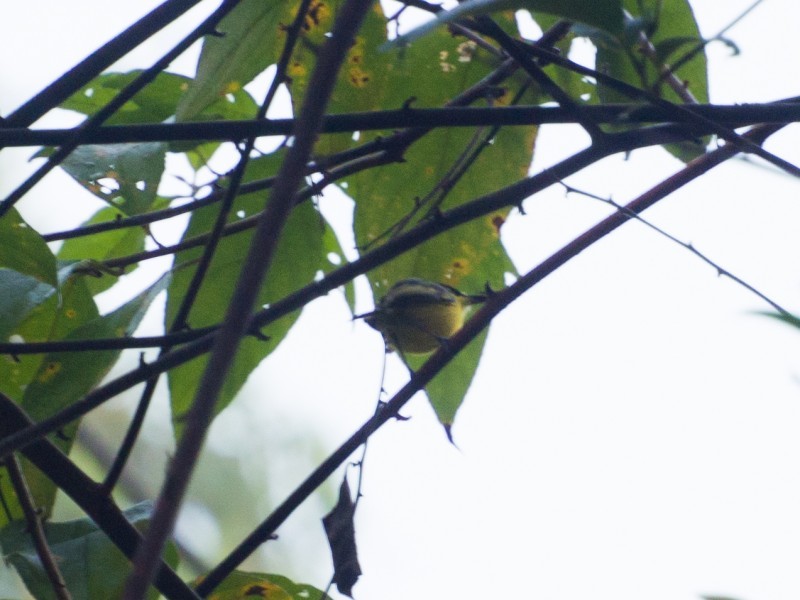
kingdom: Animalia
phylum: Chordata
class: Aves
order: Passeriformes
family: Tyrannidae
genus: Todirostrum
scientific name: Todirostrum cinereum
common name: Common tody-flycatcher
